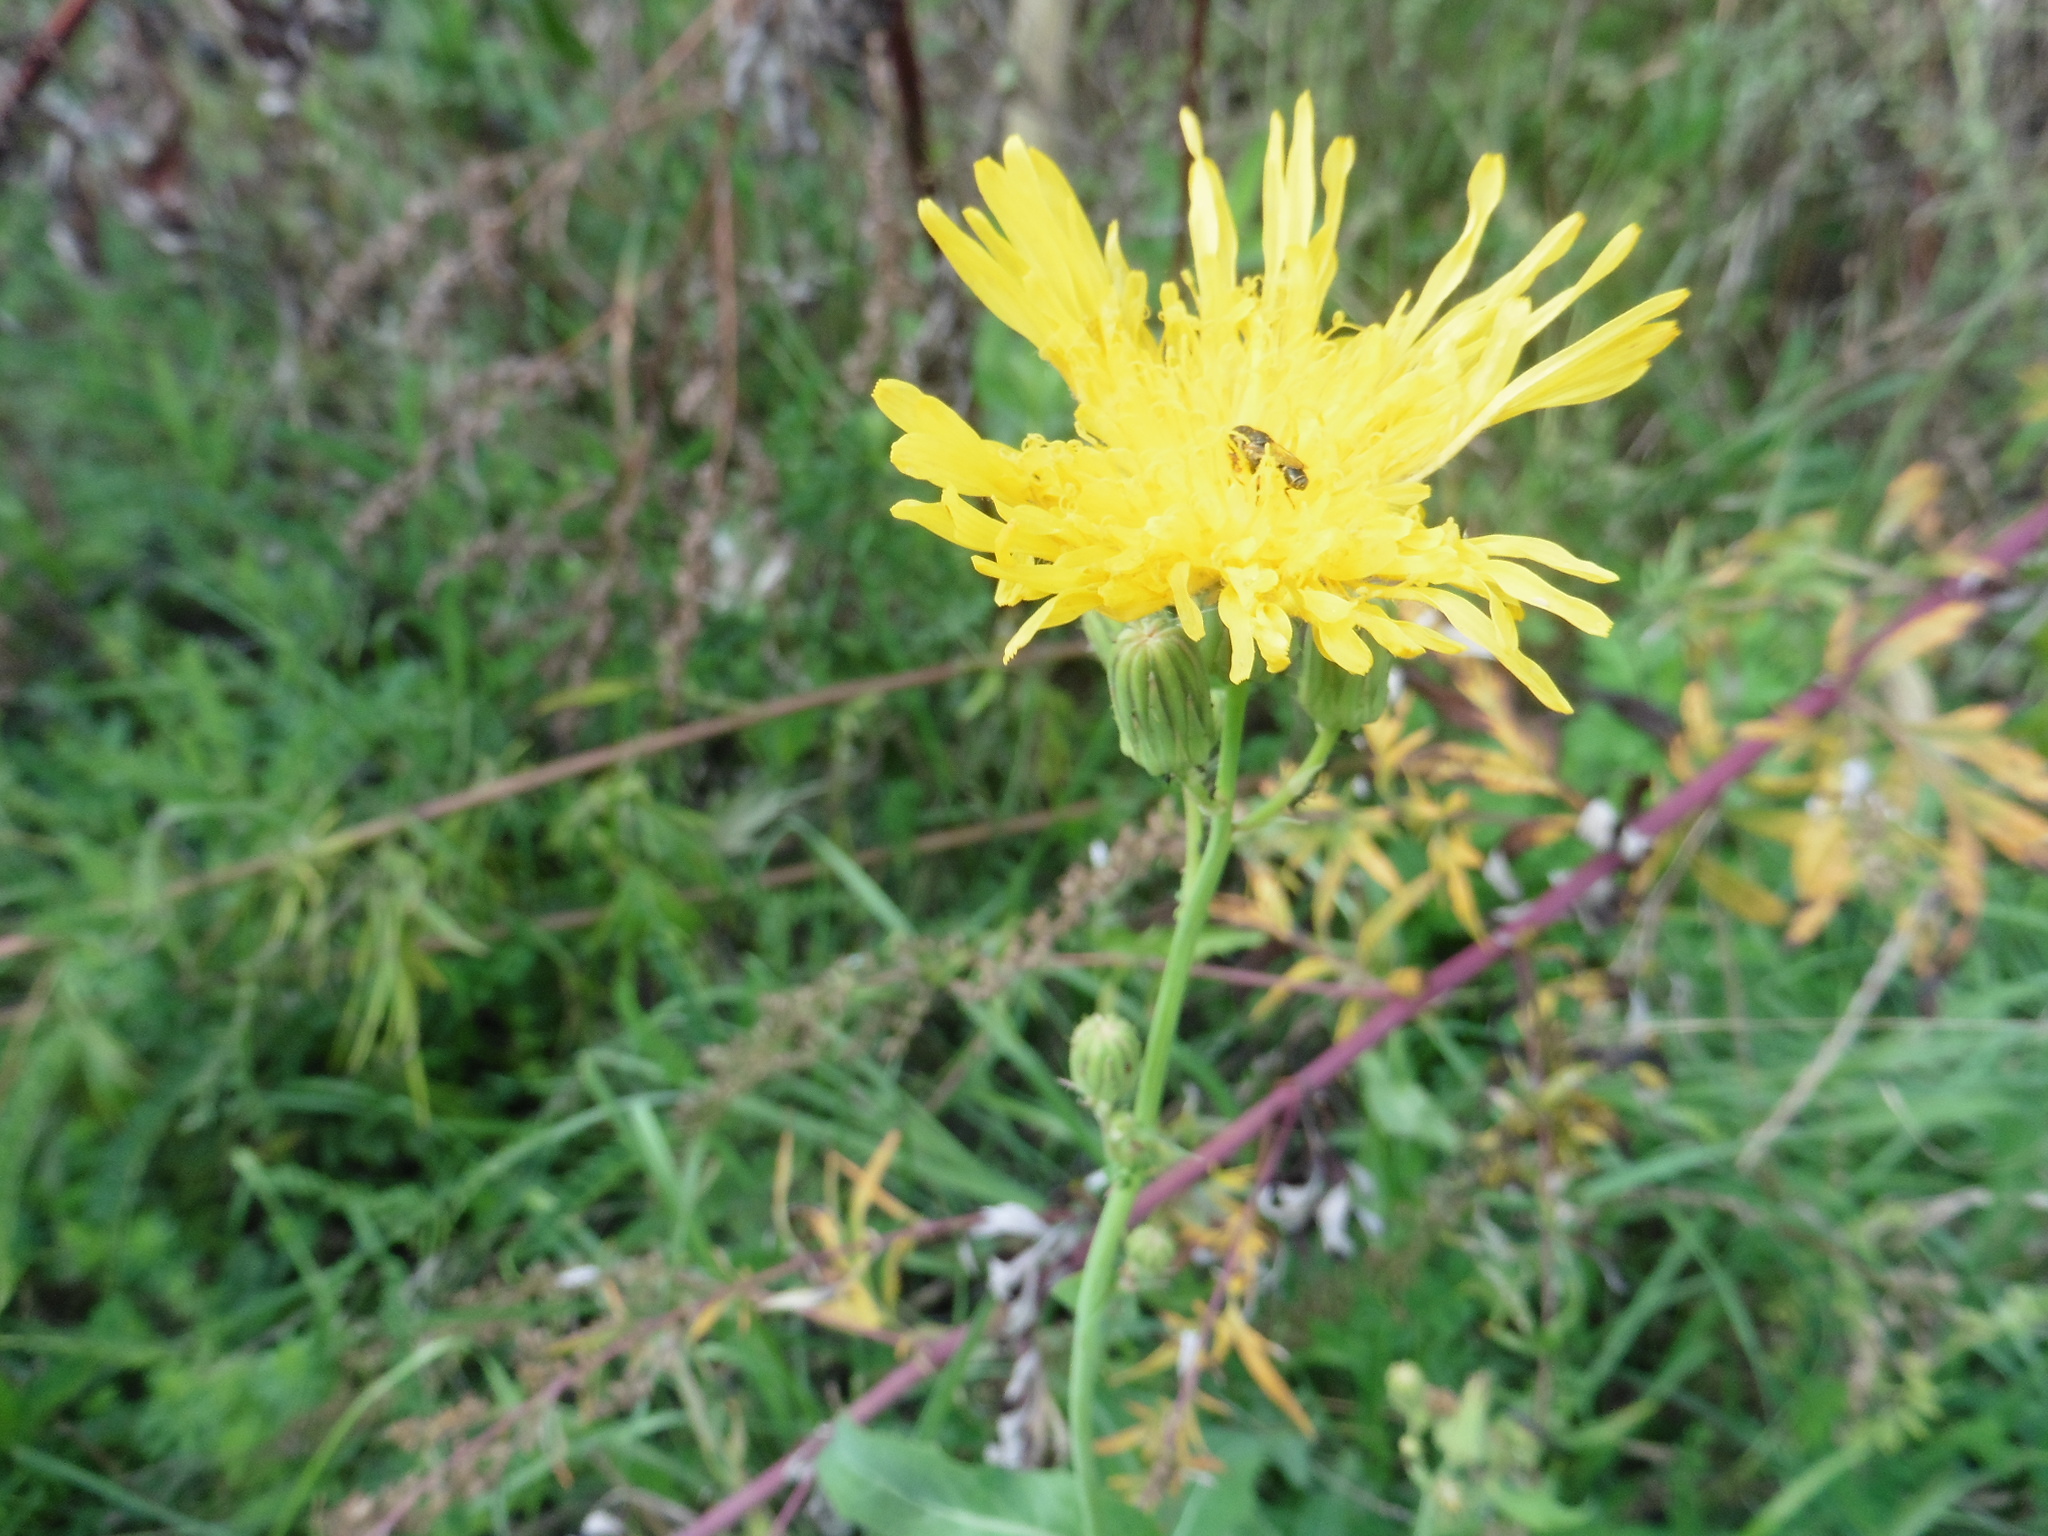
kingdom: Plantae
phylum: Tracheophyta
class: Magnoliopsida
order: Asterales
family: Asteraceae
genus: Sonchus
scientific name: Sonchus arvensis
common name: Perennial sow-thistle
